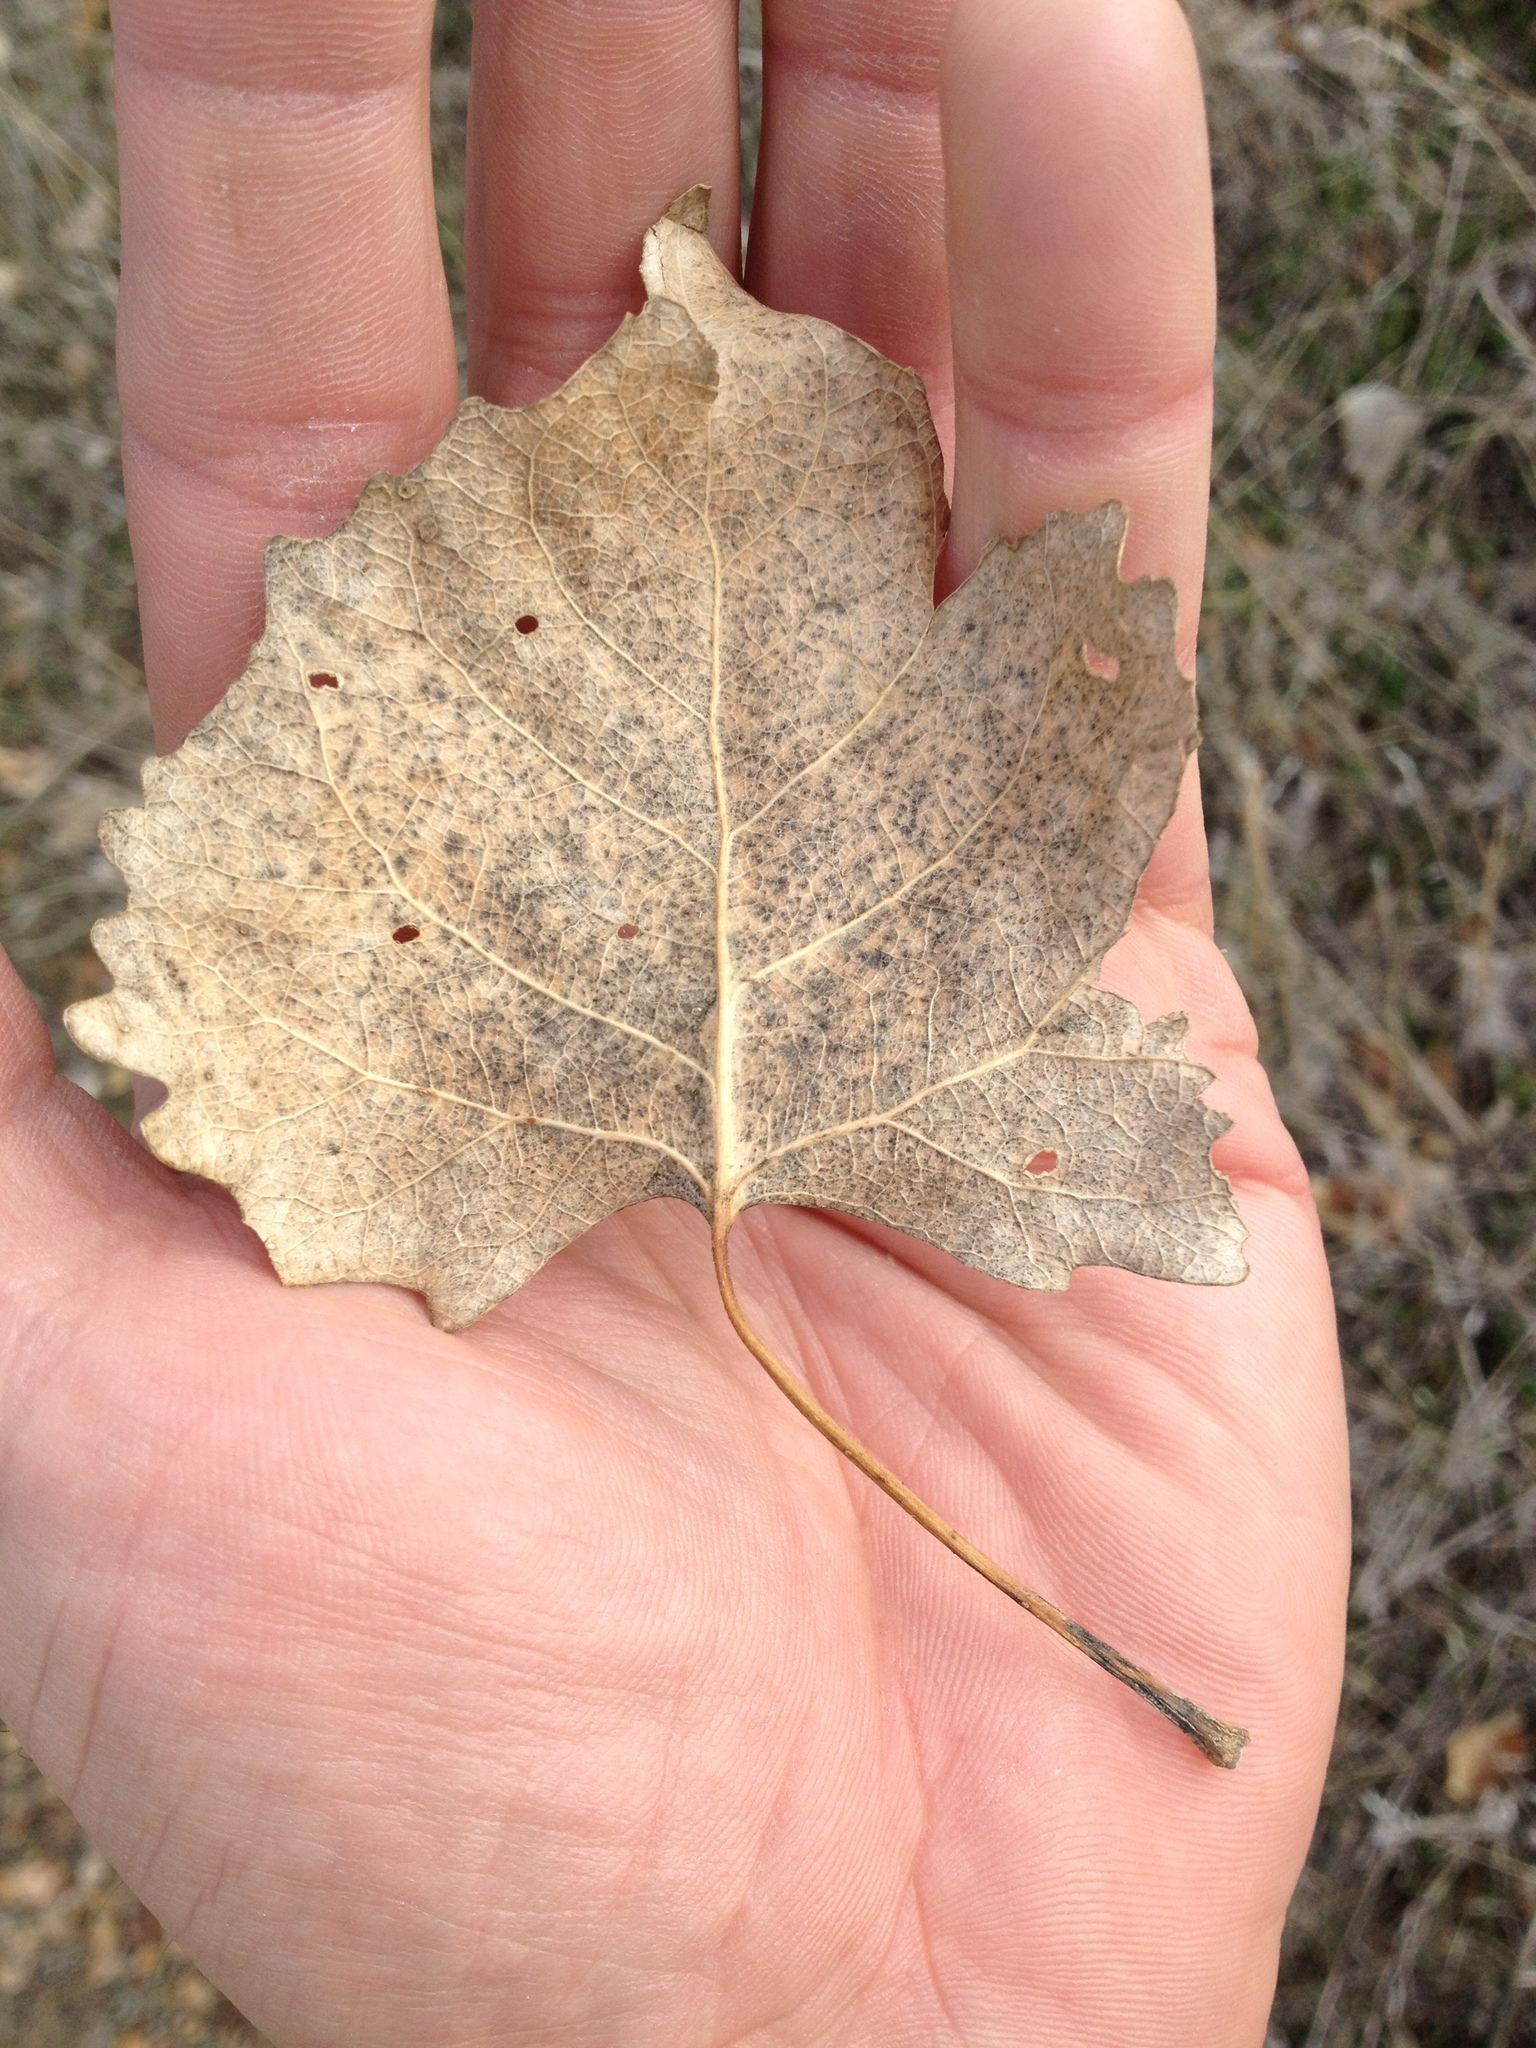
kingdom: Plantae
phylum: Tracheophyta
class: Magnoliopsida
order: Malpighiales
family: Salicaceae
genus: Populus
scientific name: Populus fremontii
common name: Fremont's cottonwood
